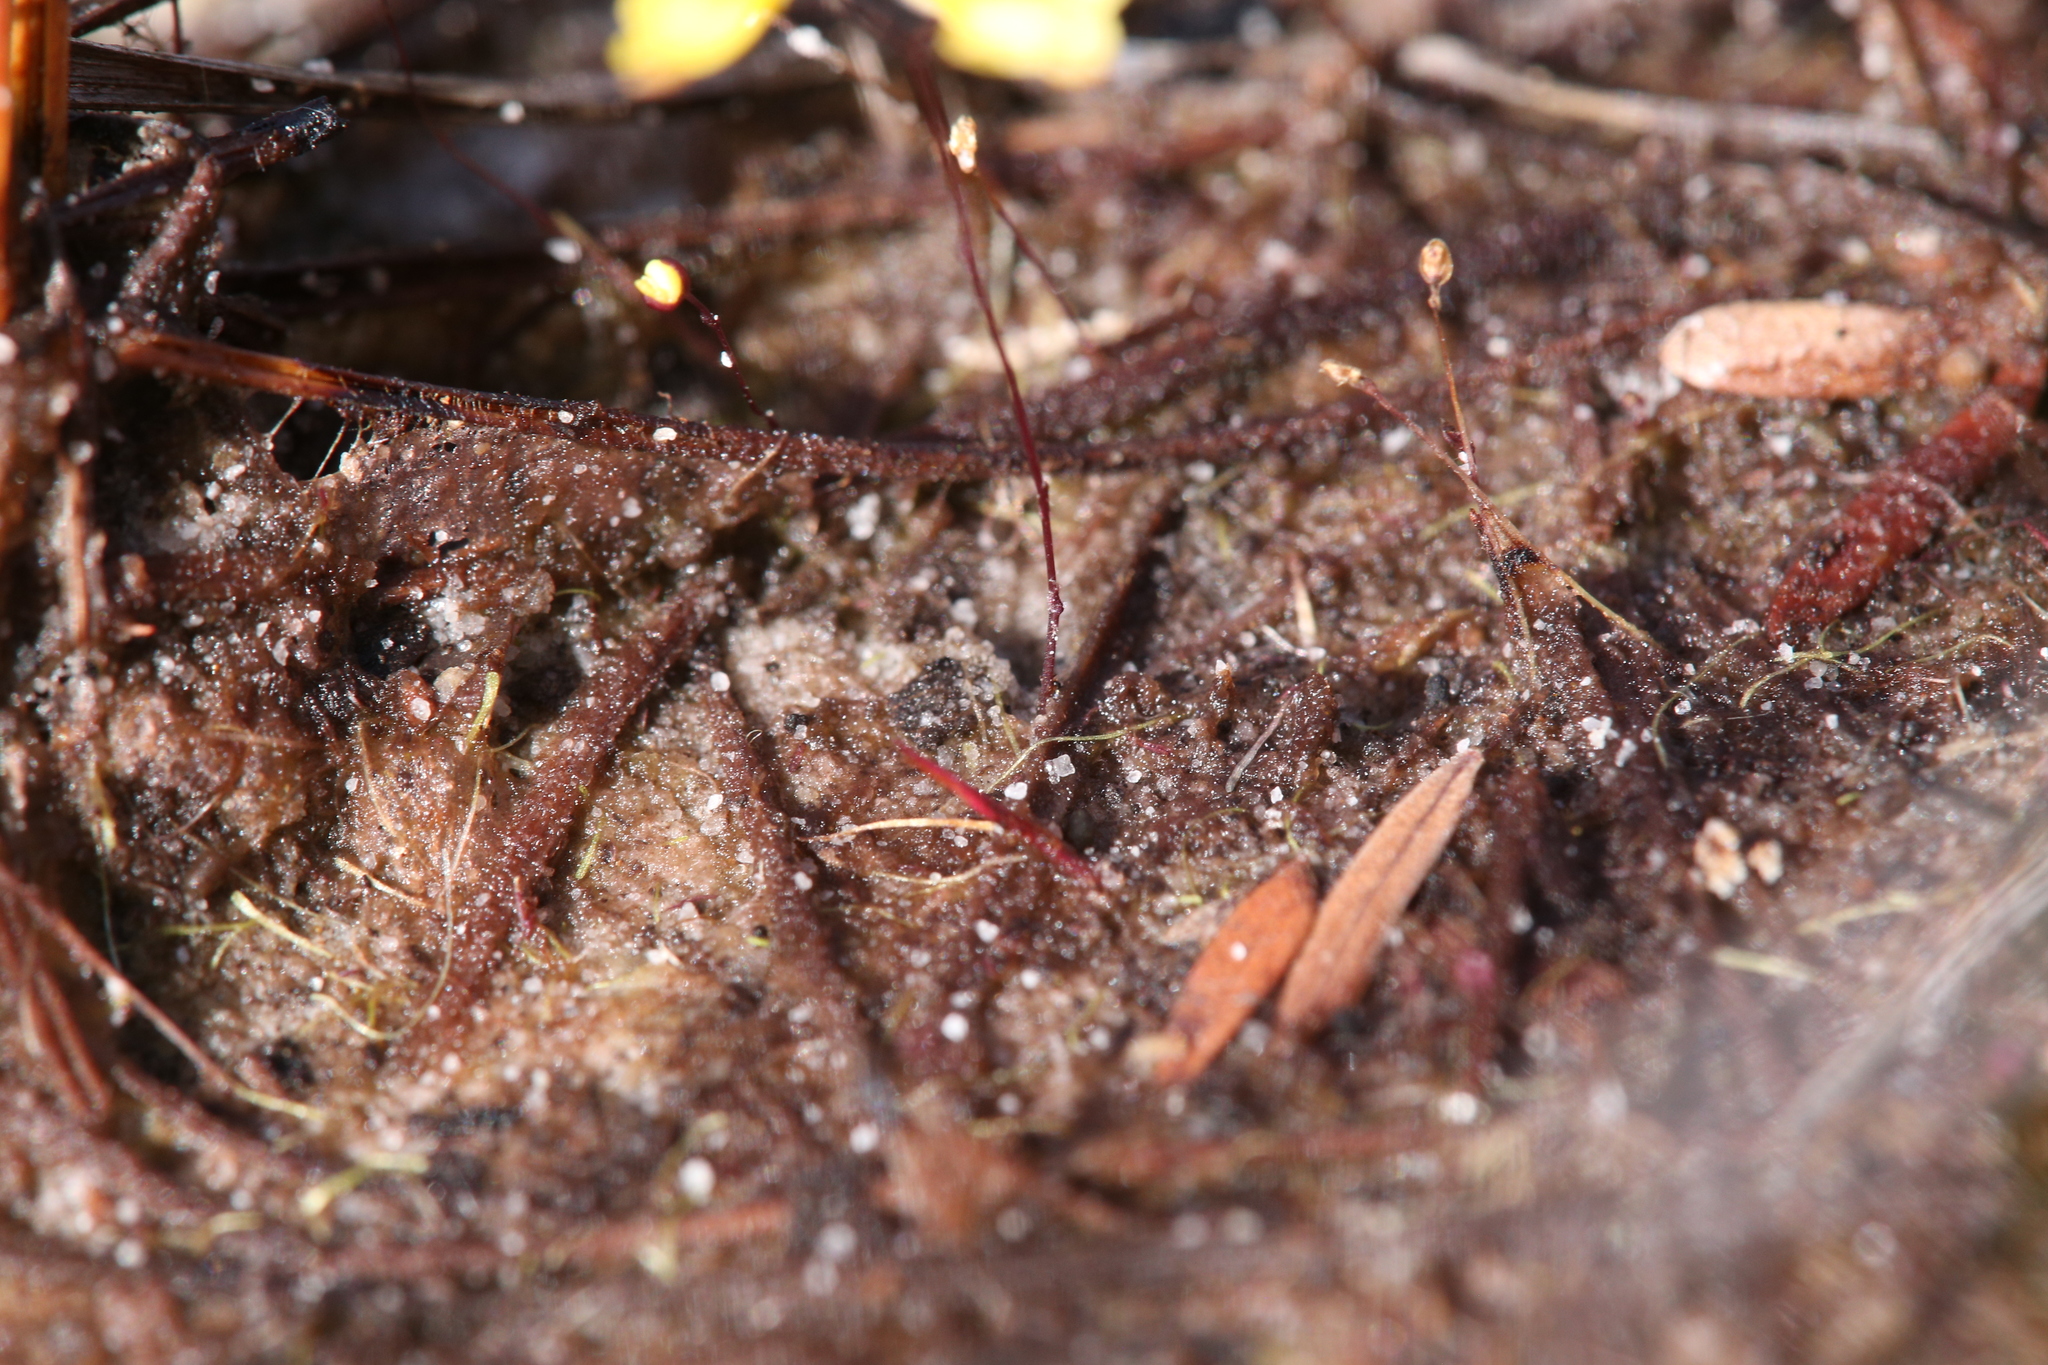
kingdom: Plantae
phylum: Tracheophyta
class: Magnoliopsida
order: Lamiales
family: Lentibulariaceae
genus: Utricularia
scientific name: Utricularia subulata
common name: Tiny bladderwort
